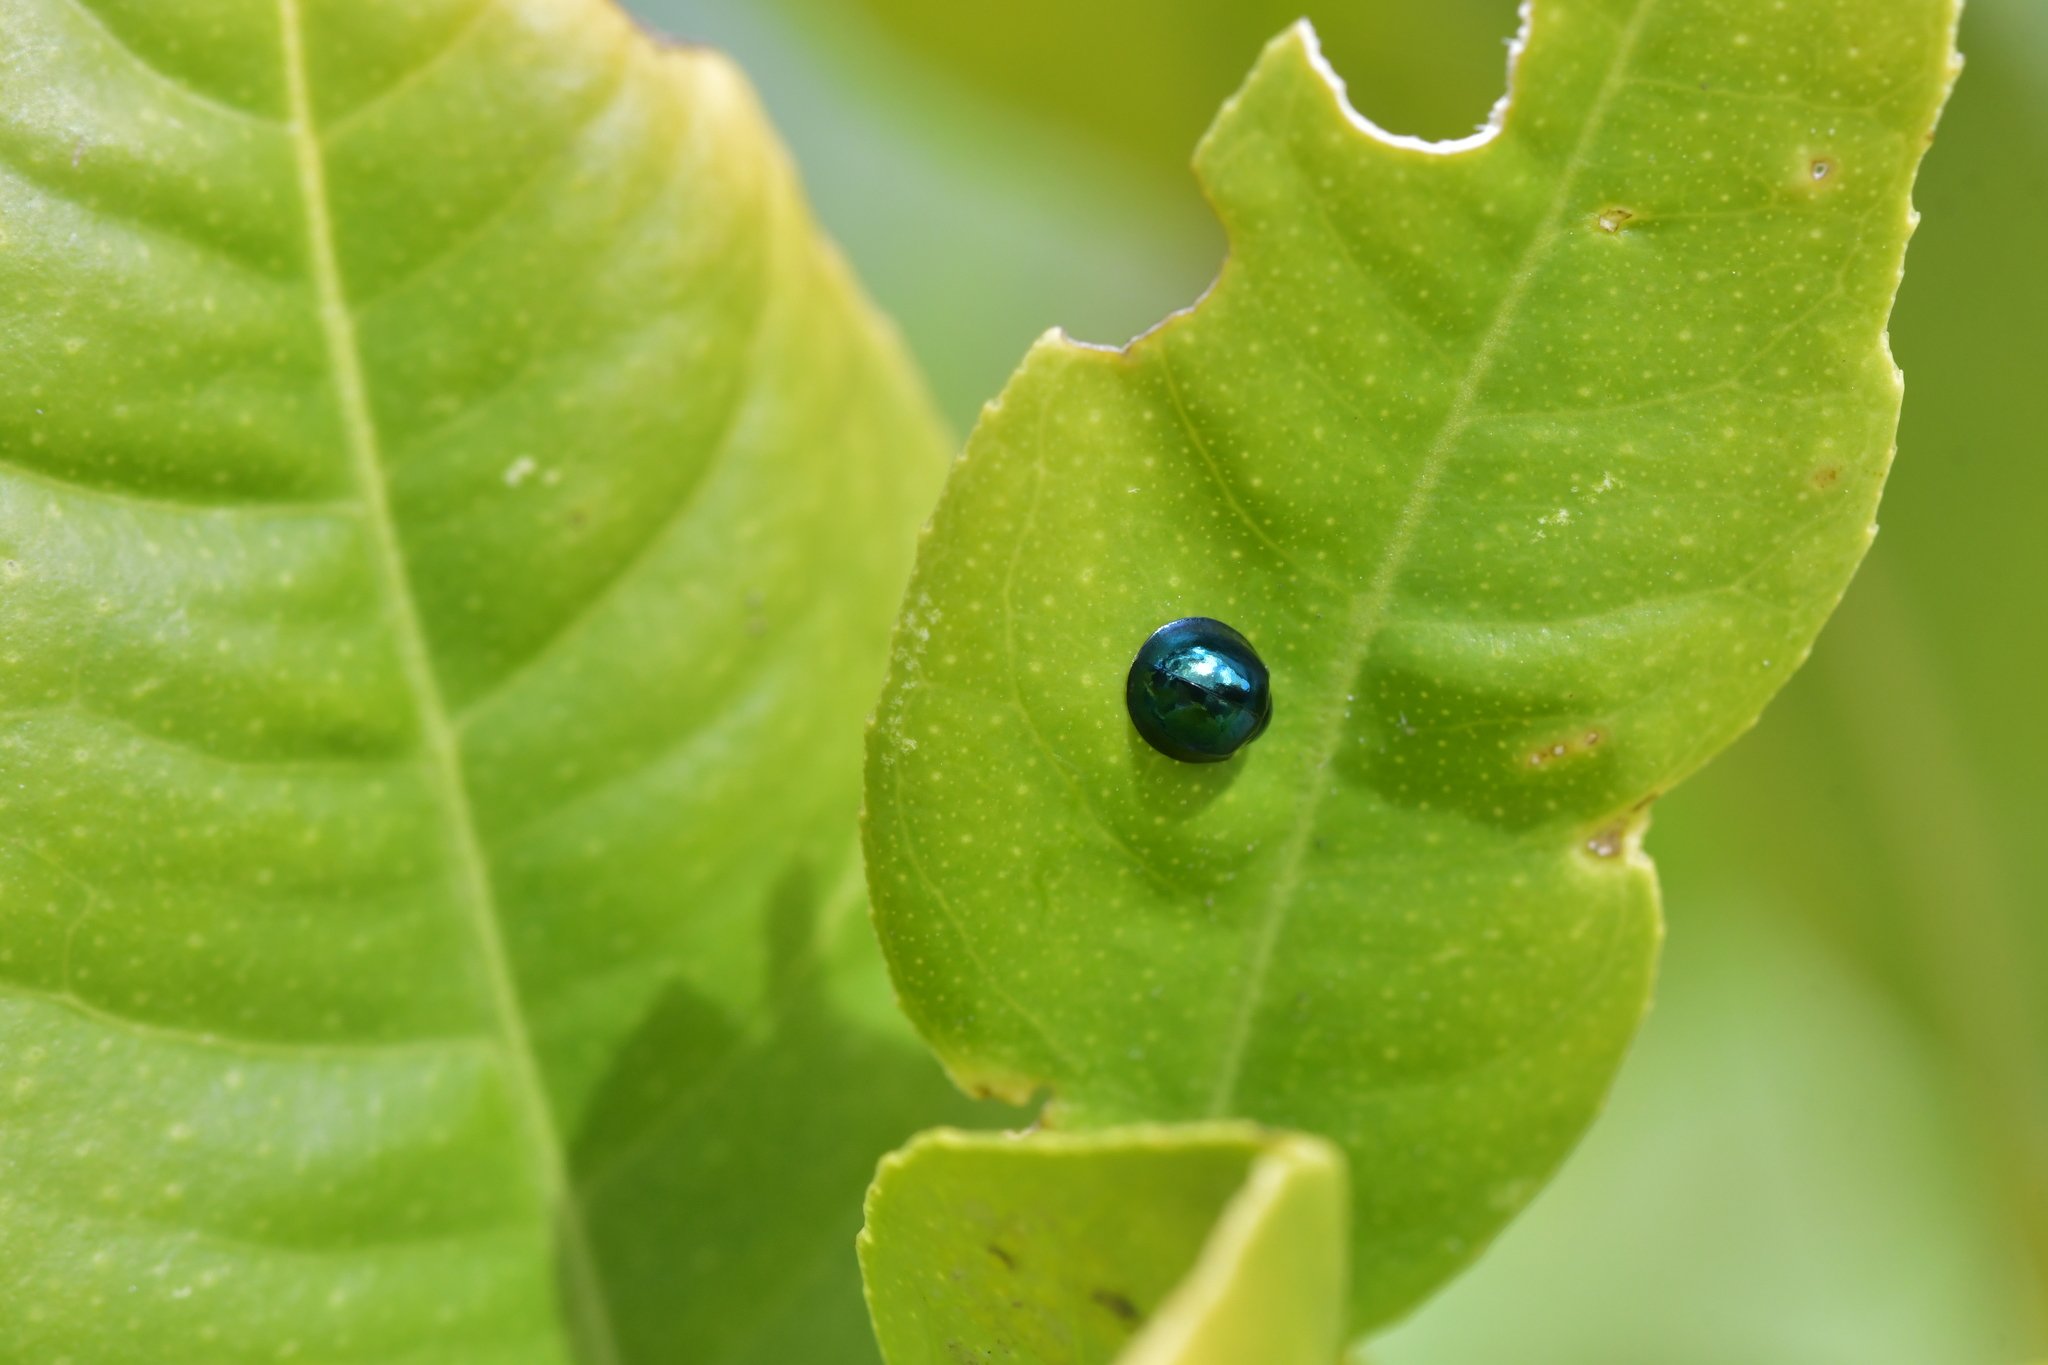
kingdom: Animalia
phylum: Arthropoda
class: Insecta
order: Coleoptera
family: Coccinellidae
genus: Halmus
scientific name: Halmus chalybeus
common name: Steel blue ladybird beetle
